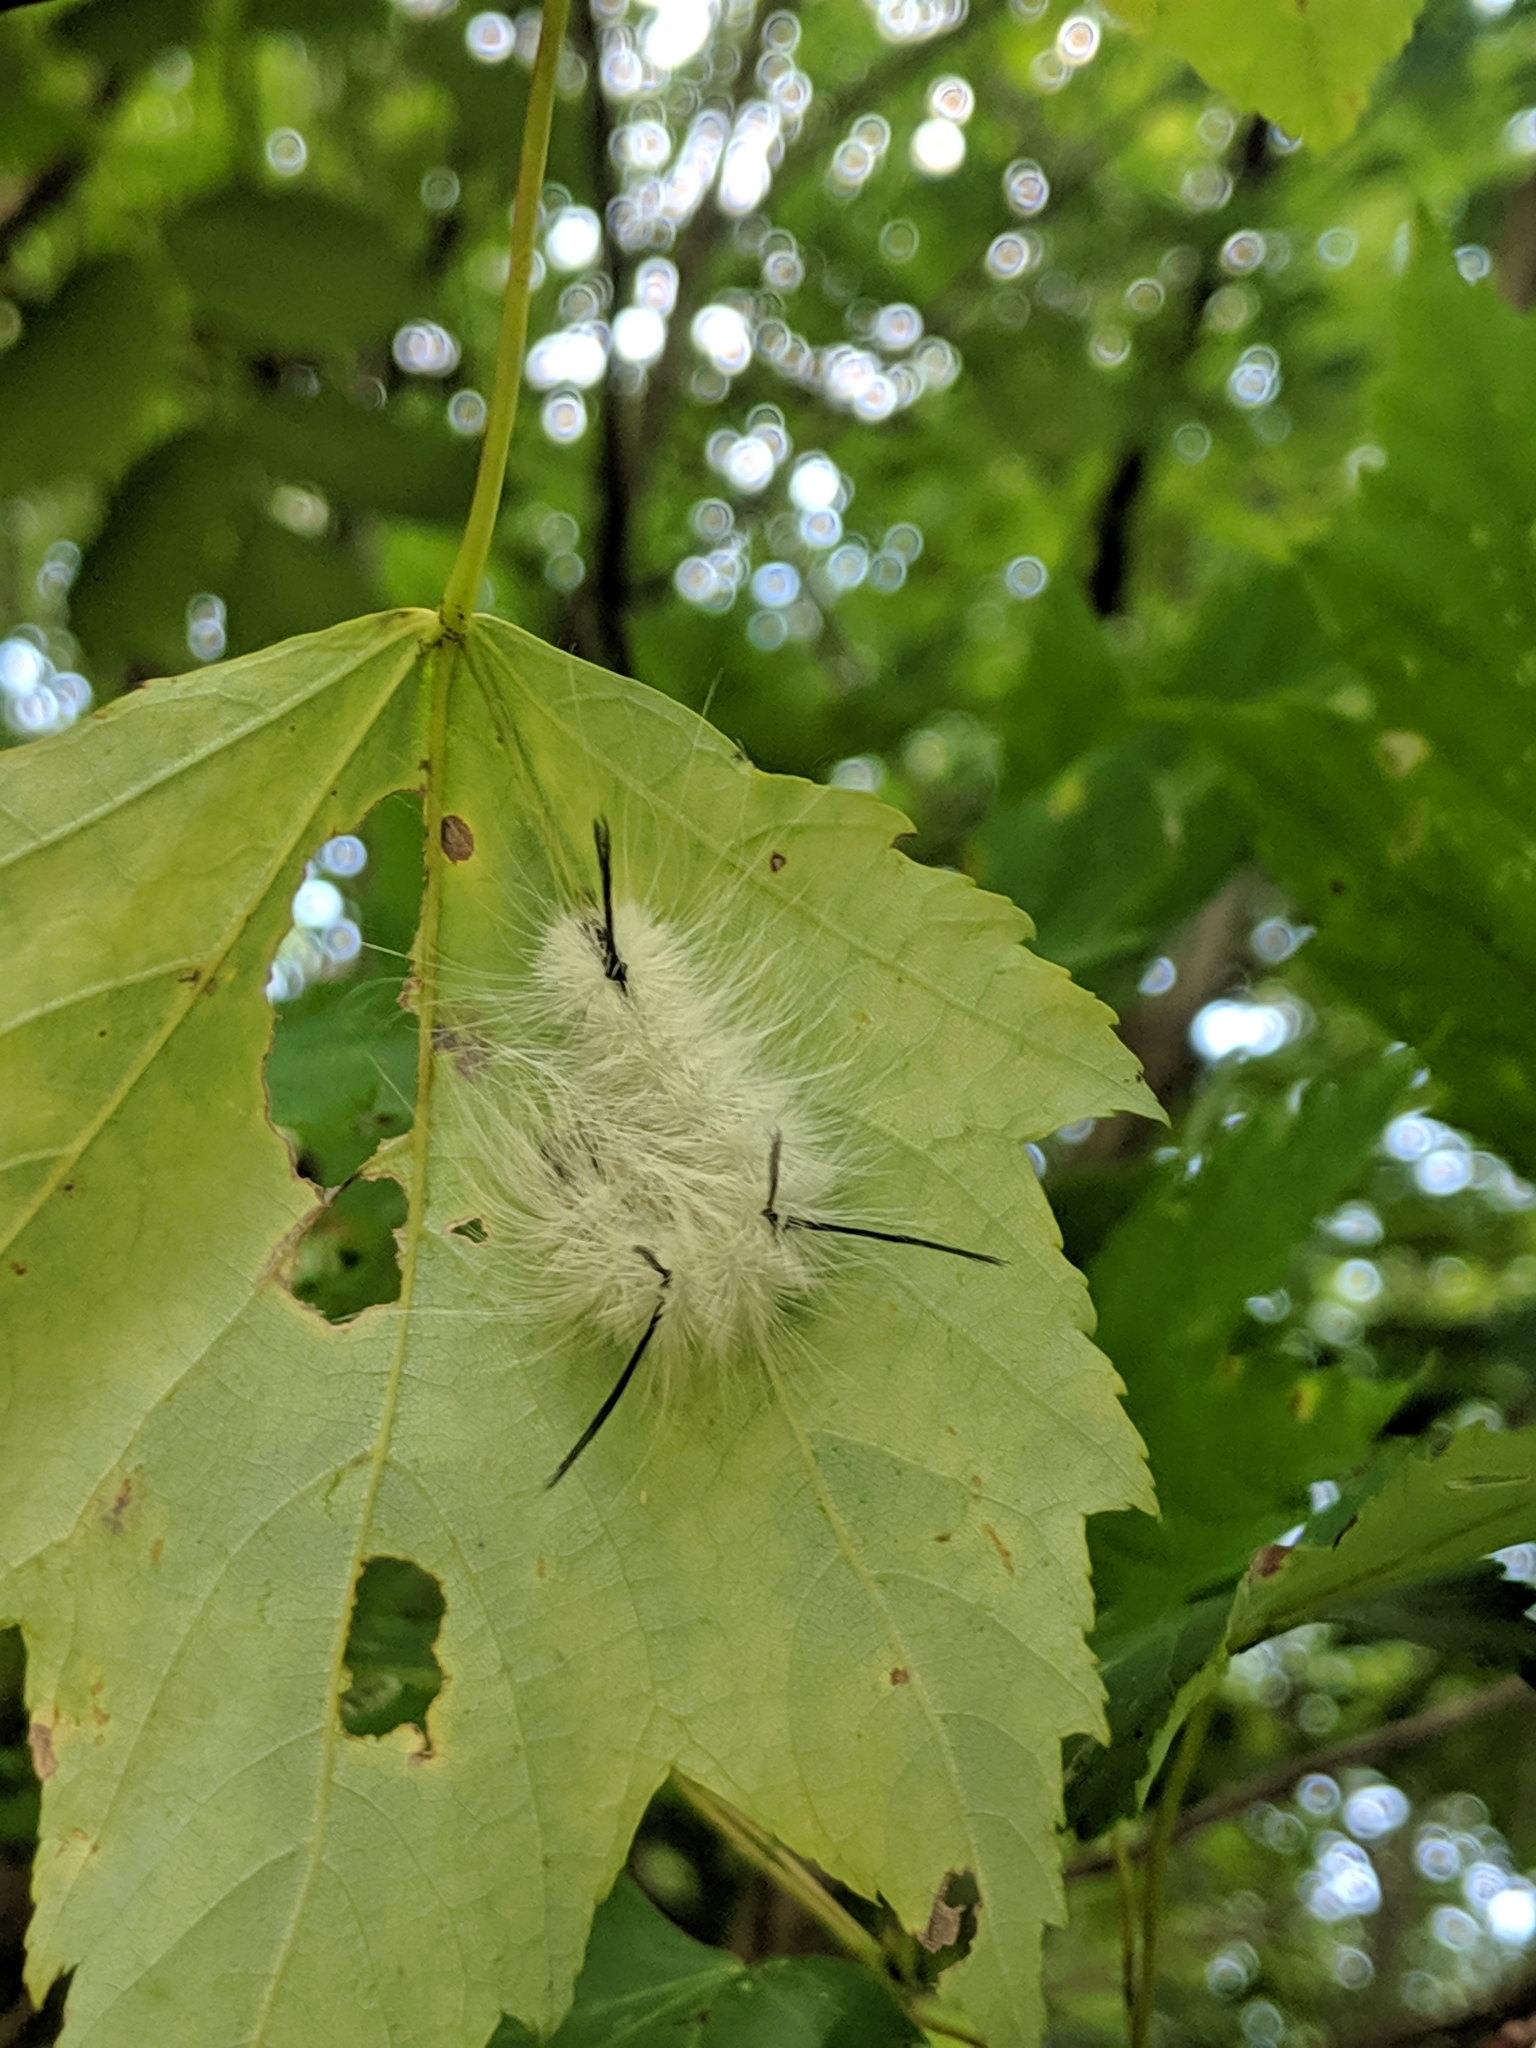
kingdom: Animalia
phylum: Arthropoda
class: Insecta
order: Lepidoptera
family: Noctuidae
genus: Acronicta
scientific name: Acronicta americana
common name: American dagger
